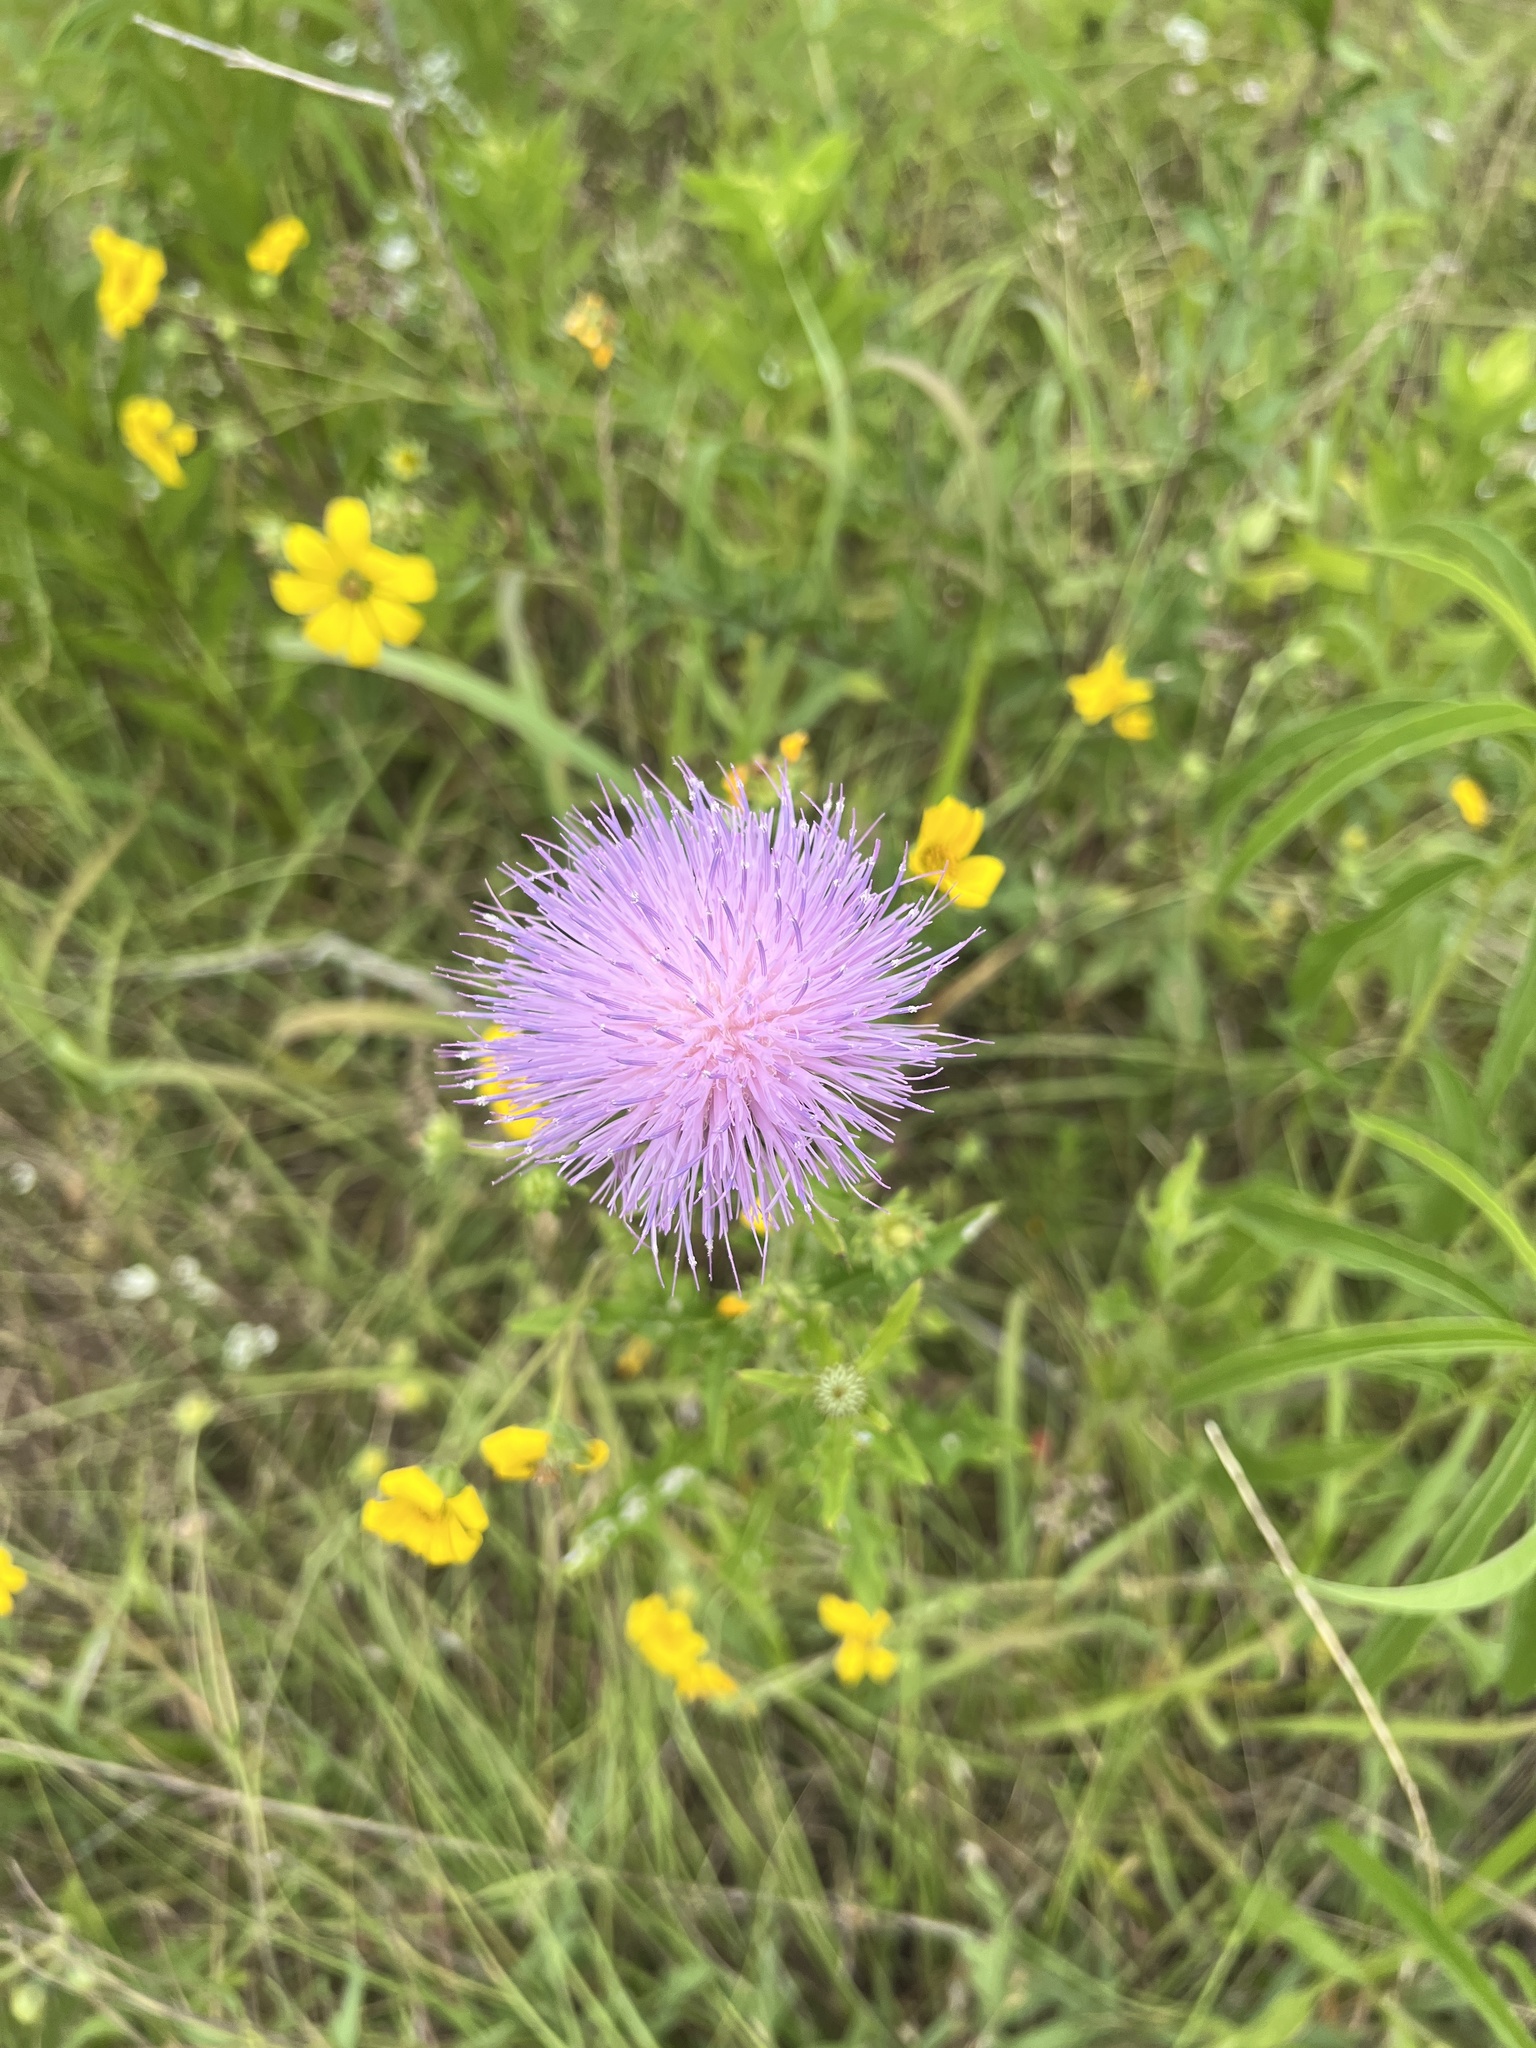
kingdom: Plantae
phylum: Tracheophyta
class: Magnoliopsida
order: Asterales
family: Asteraceae
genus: Cirsium
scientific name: Cirsium texanum
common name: Texas purple thistle
